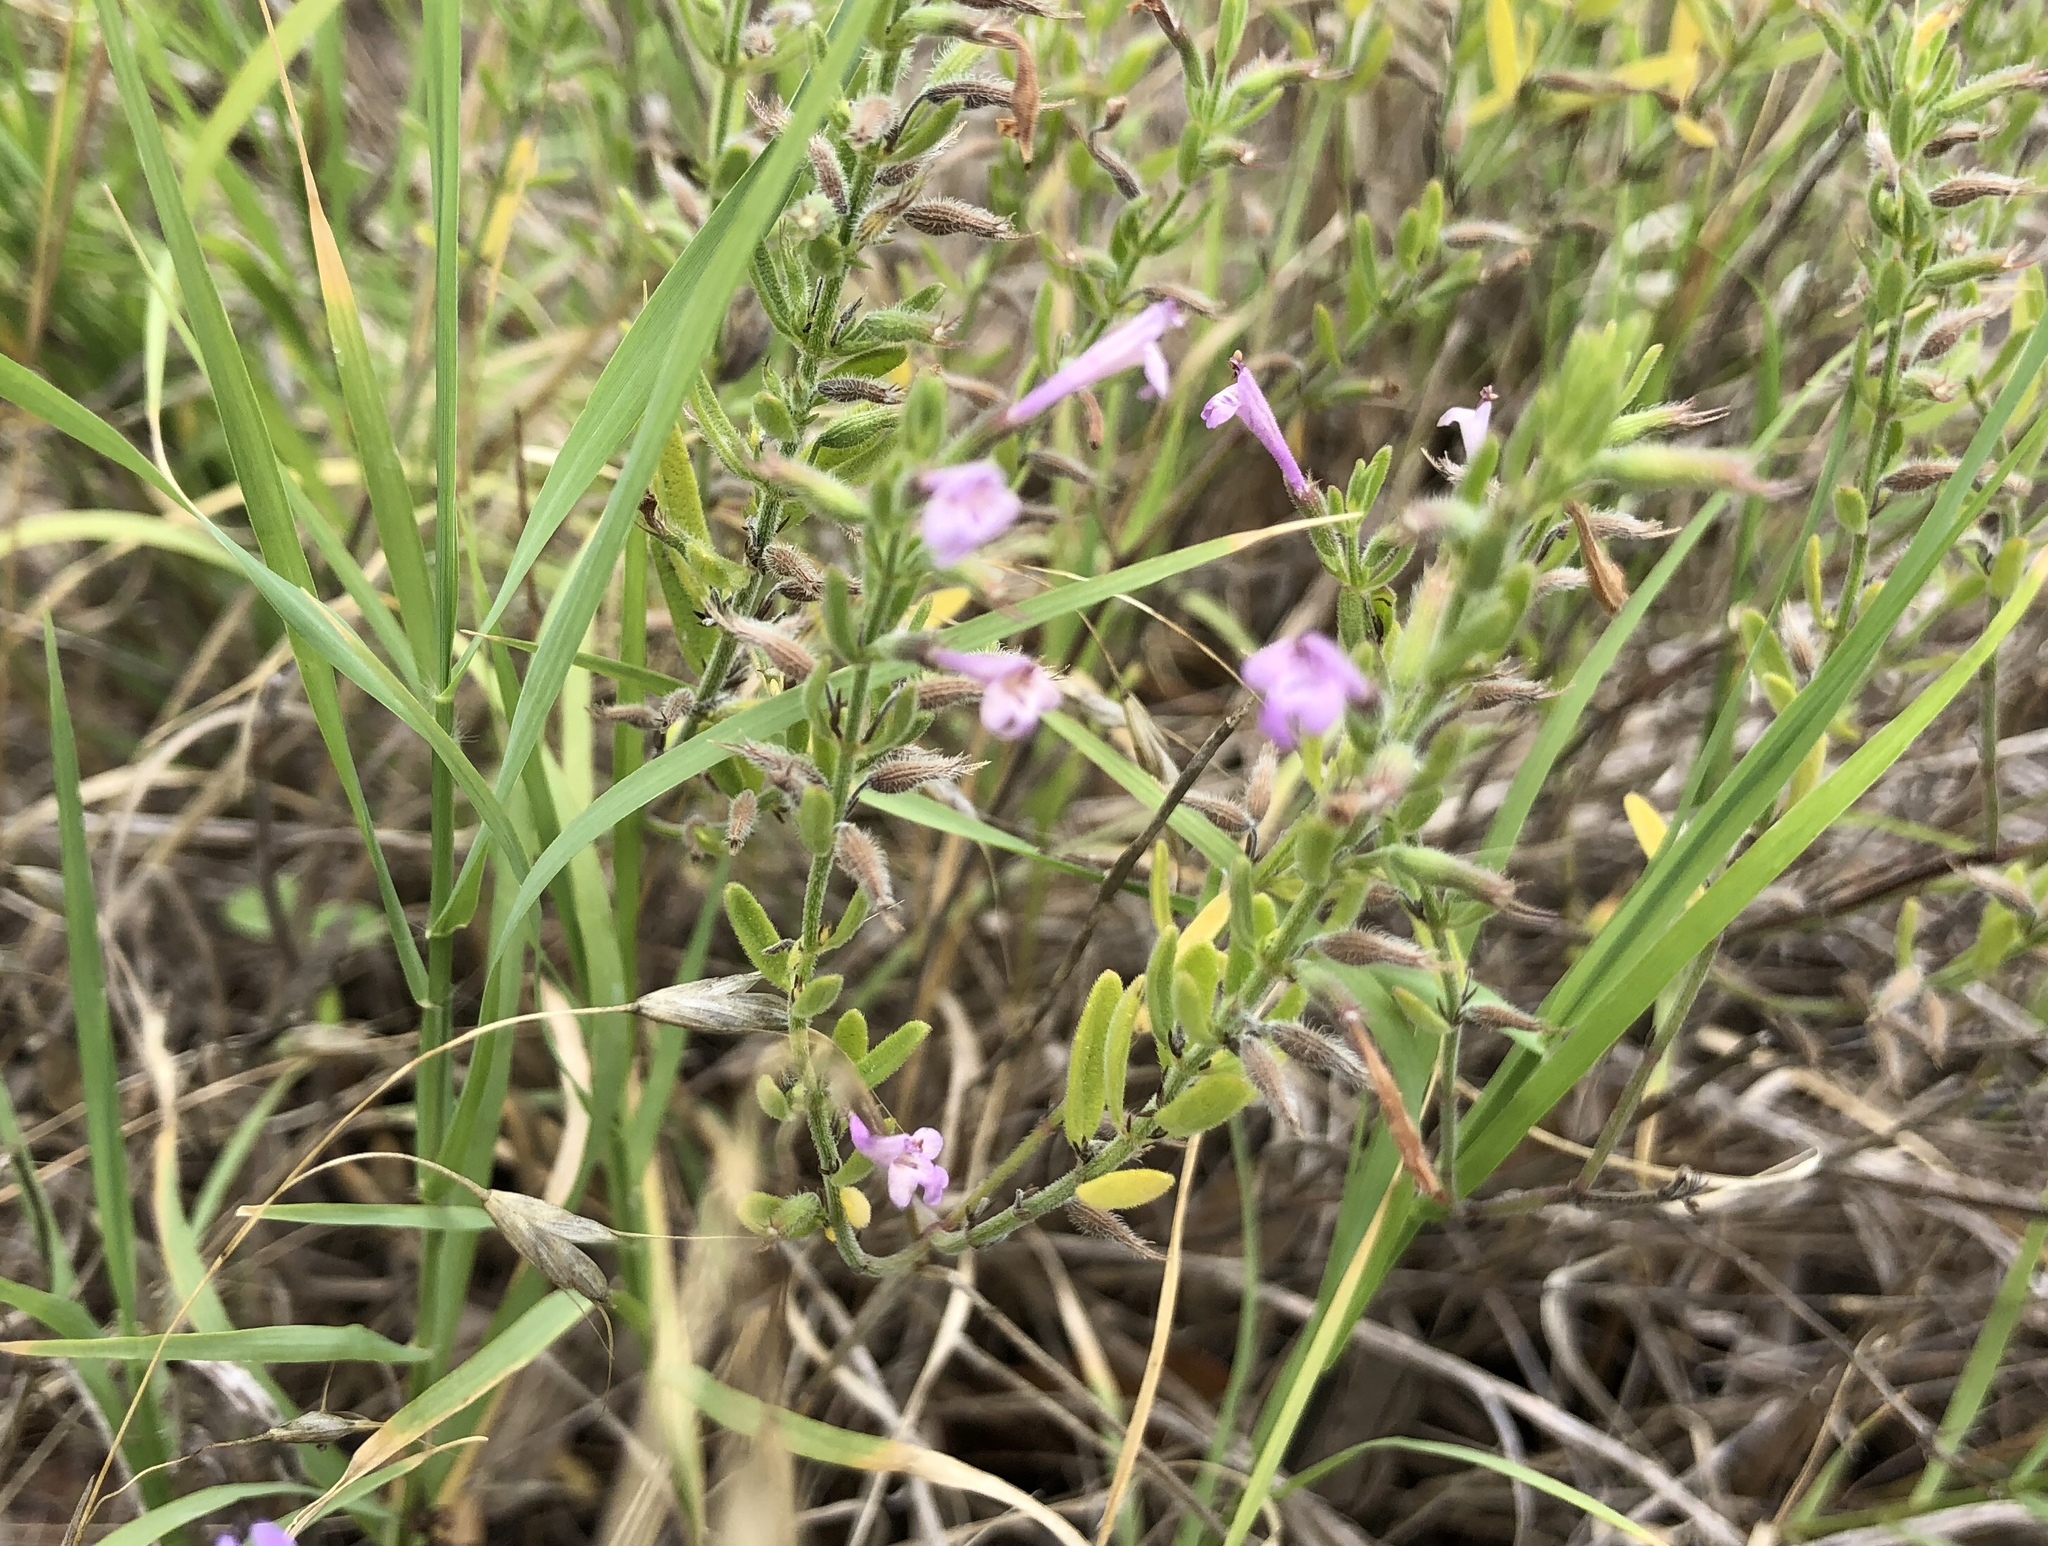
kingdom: Plantae
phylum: Tracheophyta
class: Magnoliopsida
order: Lamiales
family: Lamiaceae
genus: Hedeoma
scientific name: Hedeoma reverchonii
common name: Reverchon's false penny-royal
